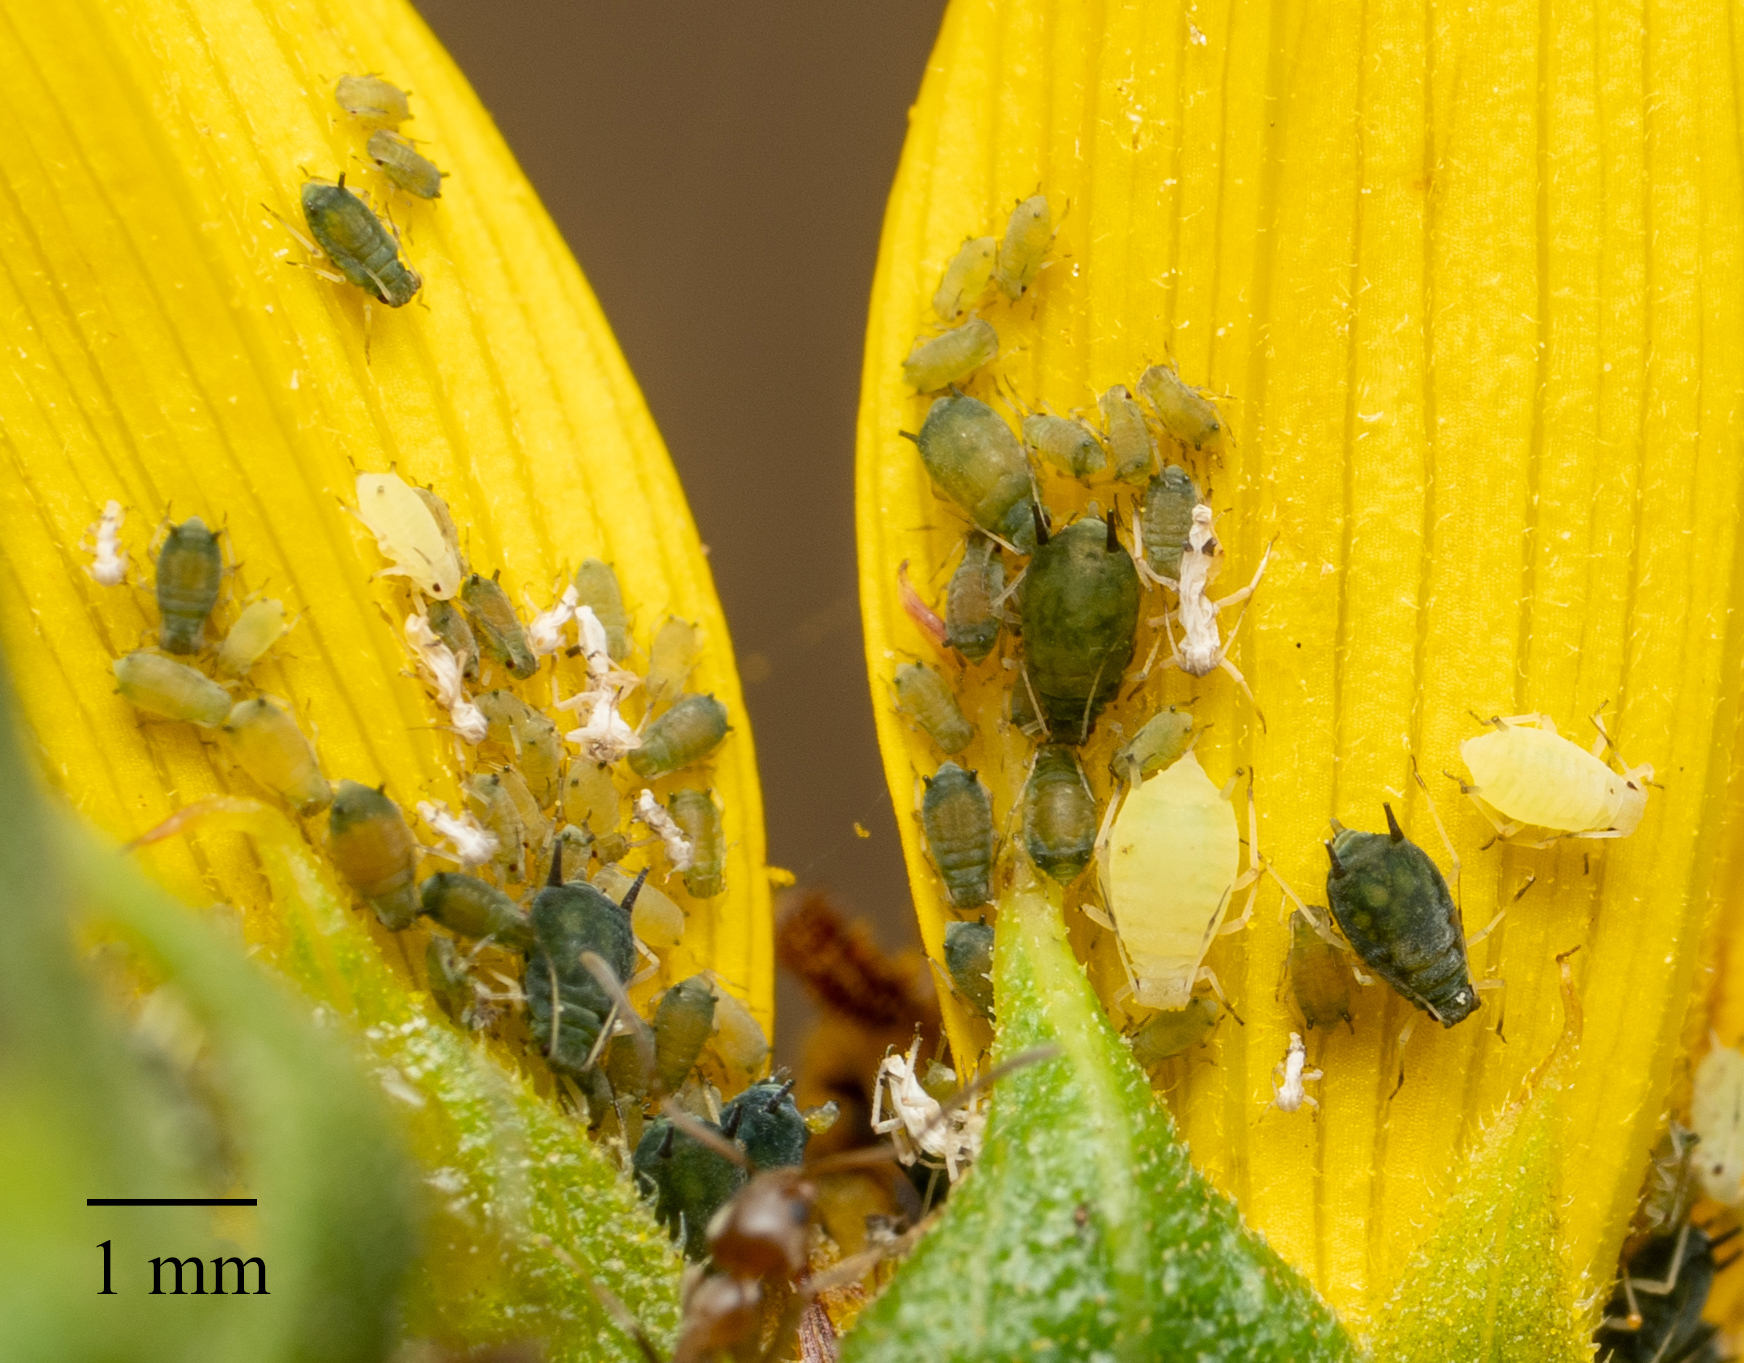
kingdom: Animalia
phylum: Arthropoda
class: Insecta
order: Hemiptera
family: Aphididae
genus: Aphis
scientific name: Aphis gossypii
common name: Melon aphid
